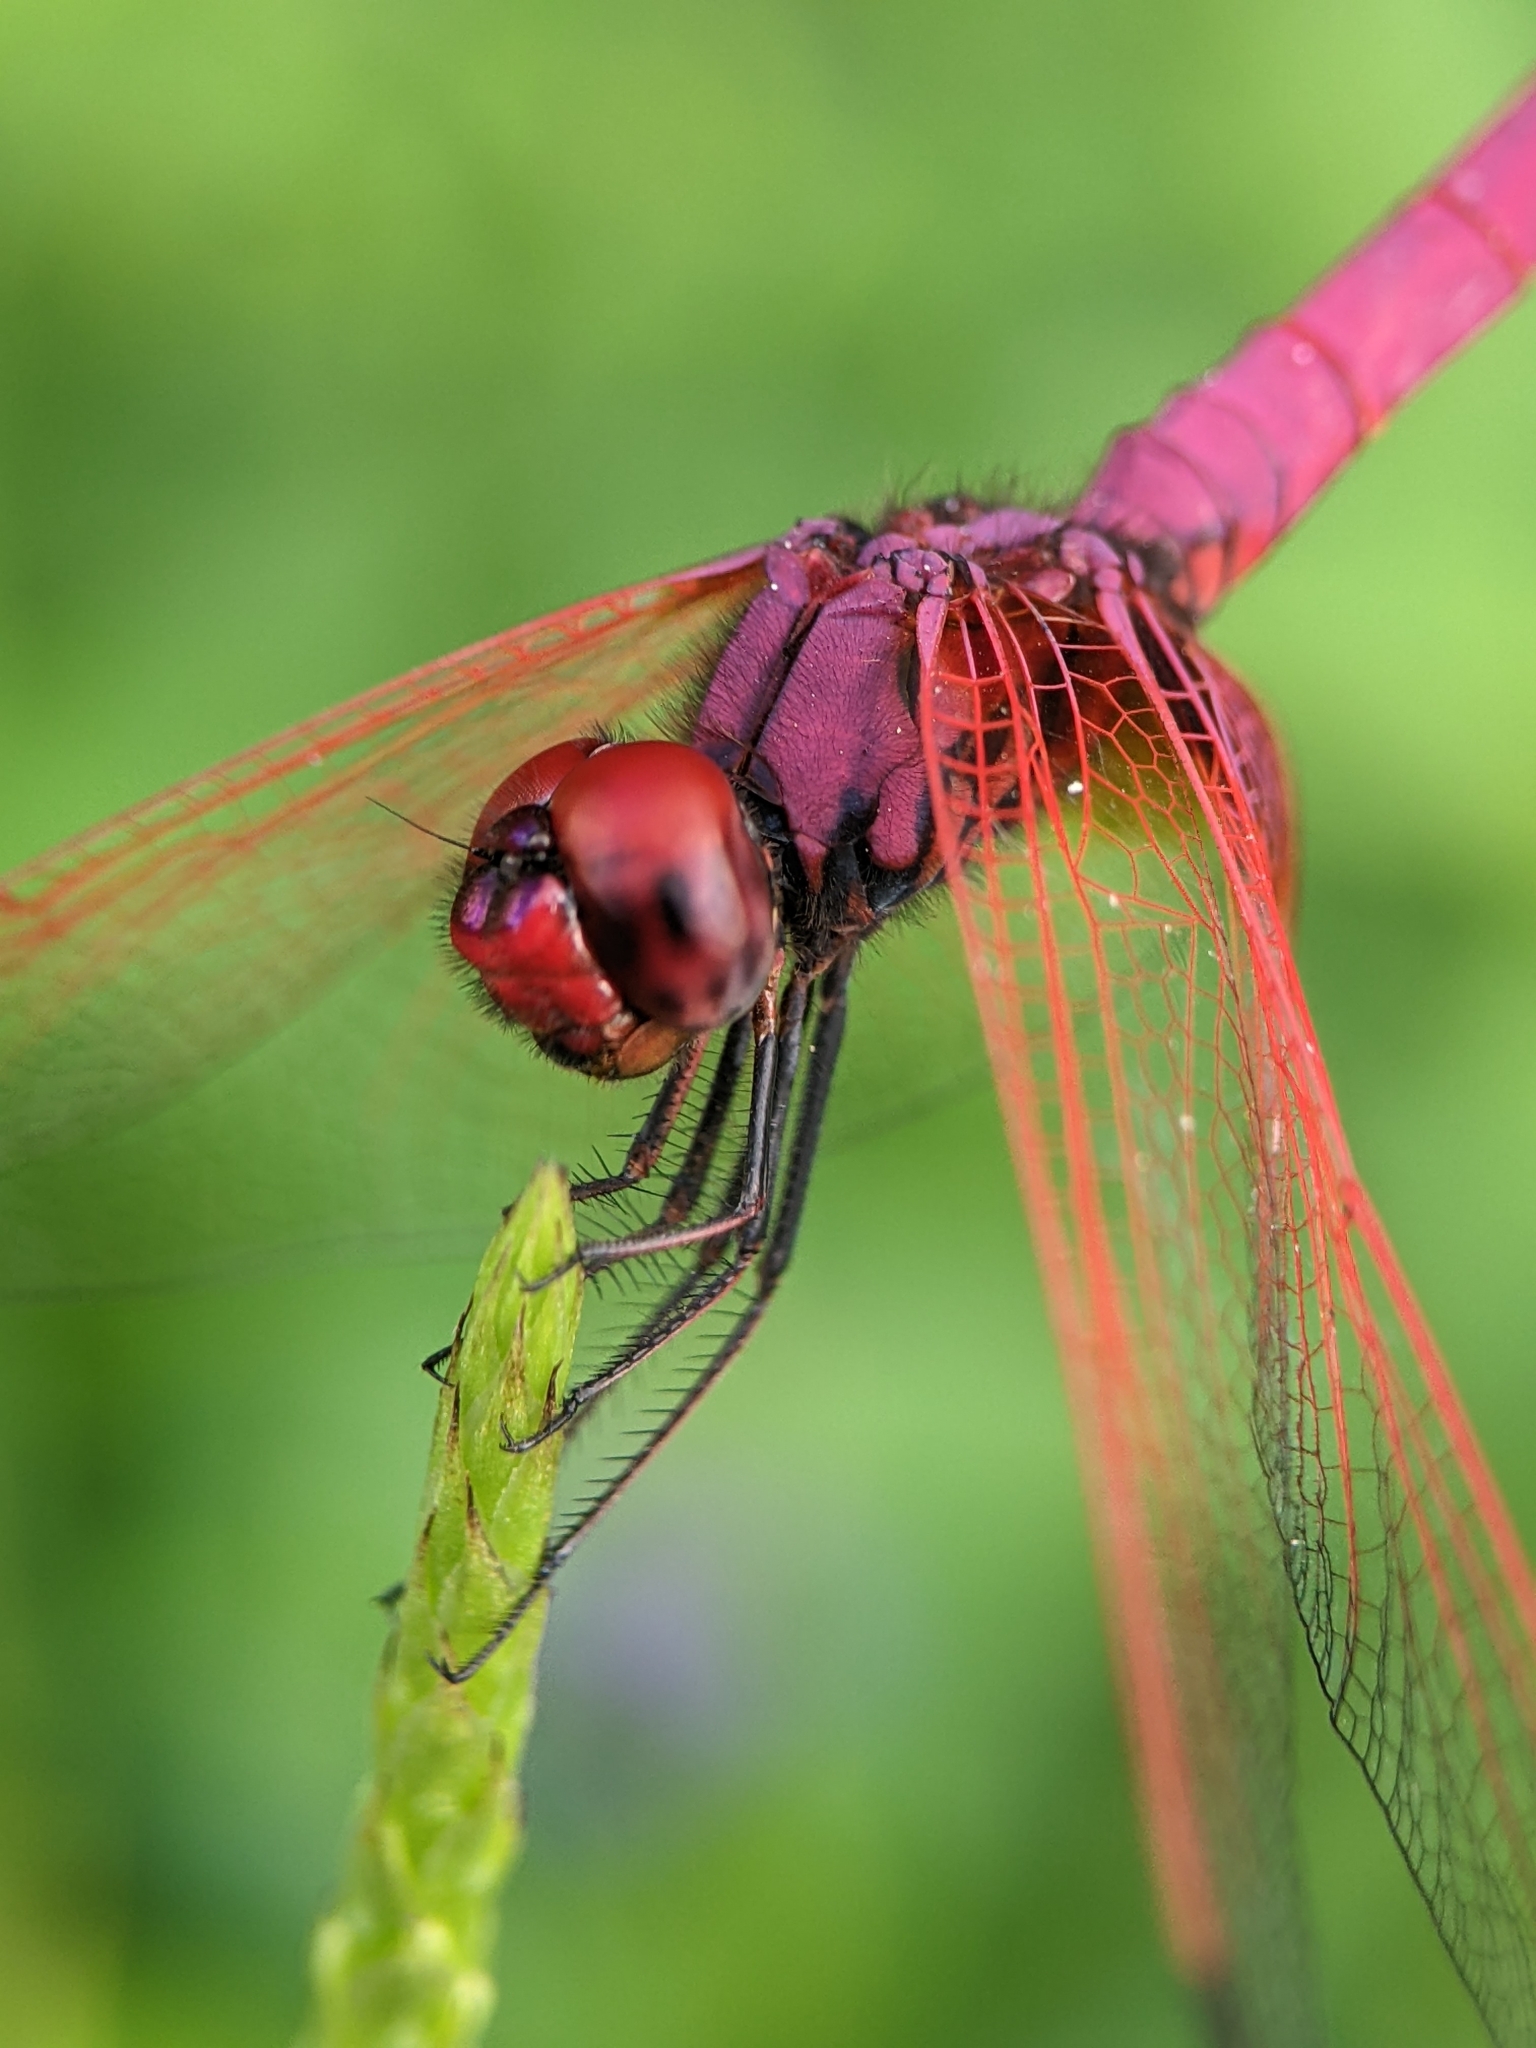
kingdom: Animalia
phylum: Arthropoda
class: Insecta
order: Odonata
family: Libellulidae
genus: Trithemis
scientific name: Trithemis aurora
